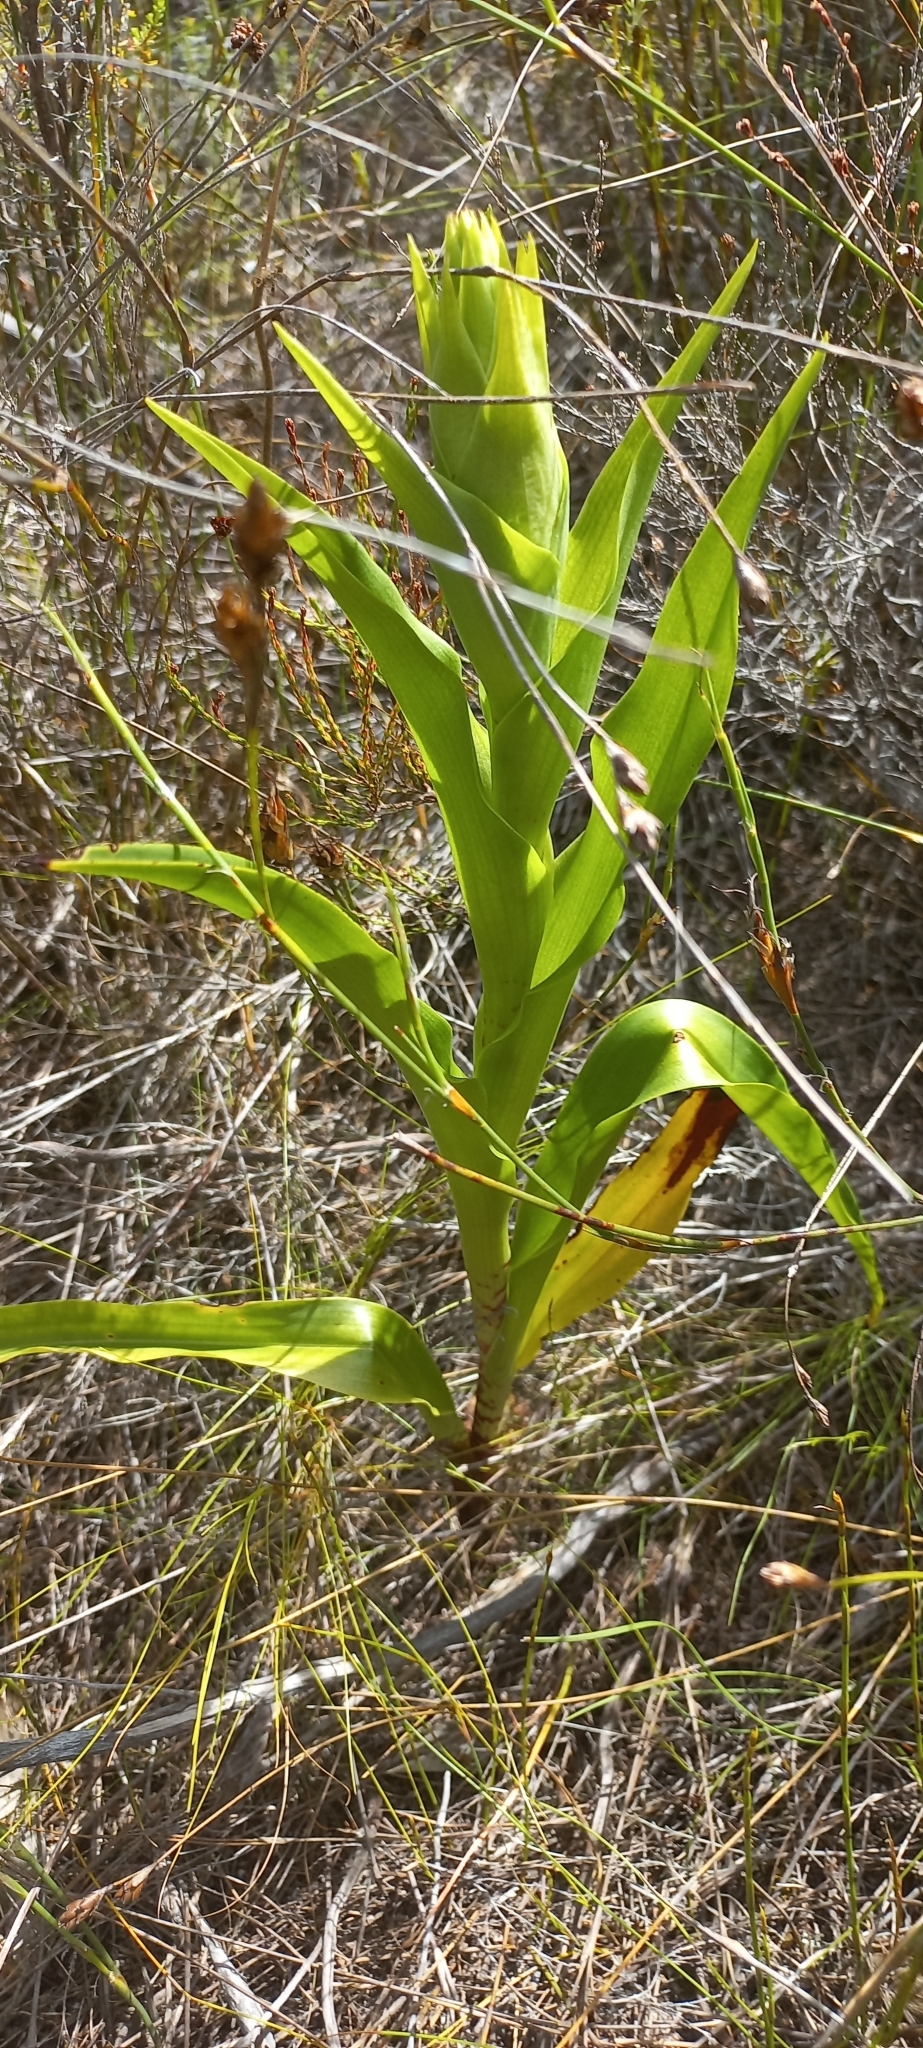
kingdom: Plantae
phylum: Tracheophyta
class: Liliopsida
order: Asparagales
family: Orchidaceae
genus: Disa
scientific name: Disa cornuta
